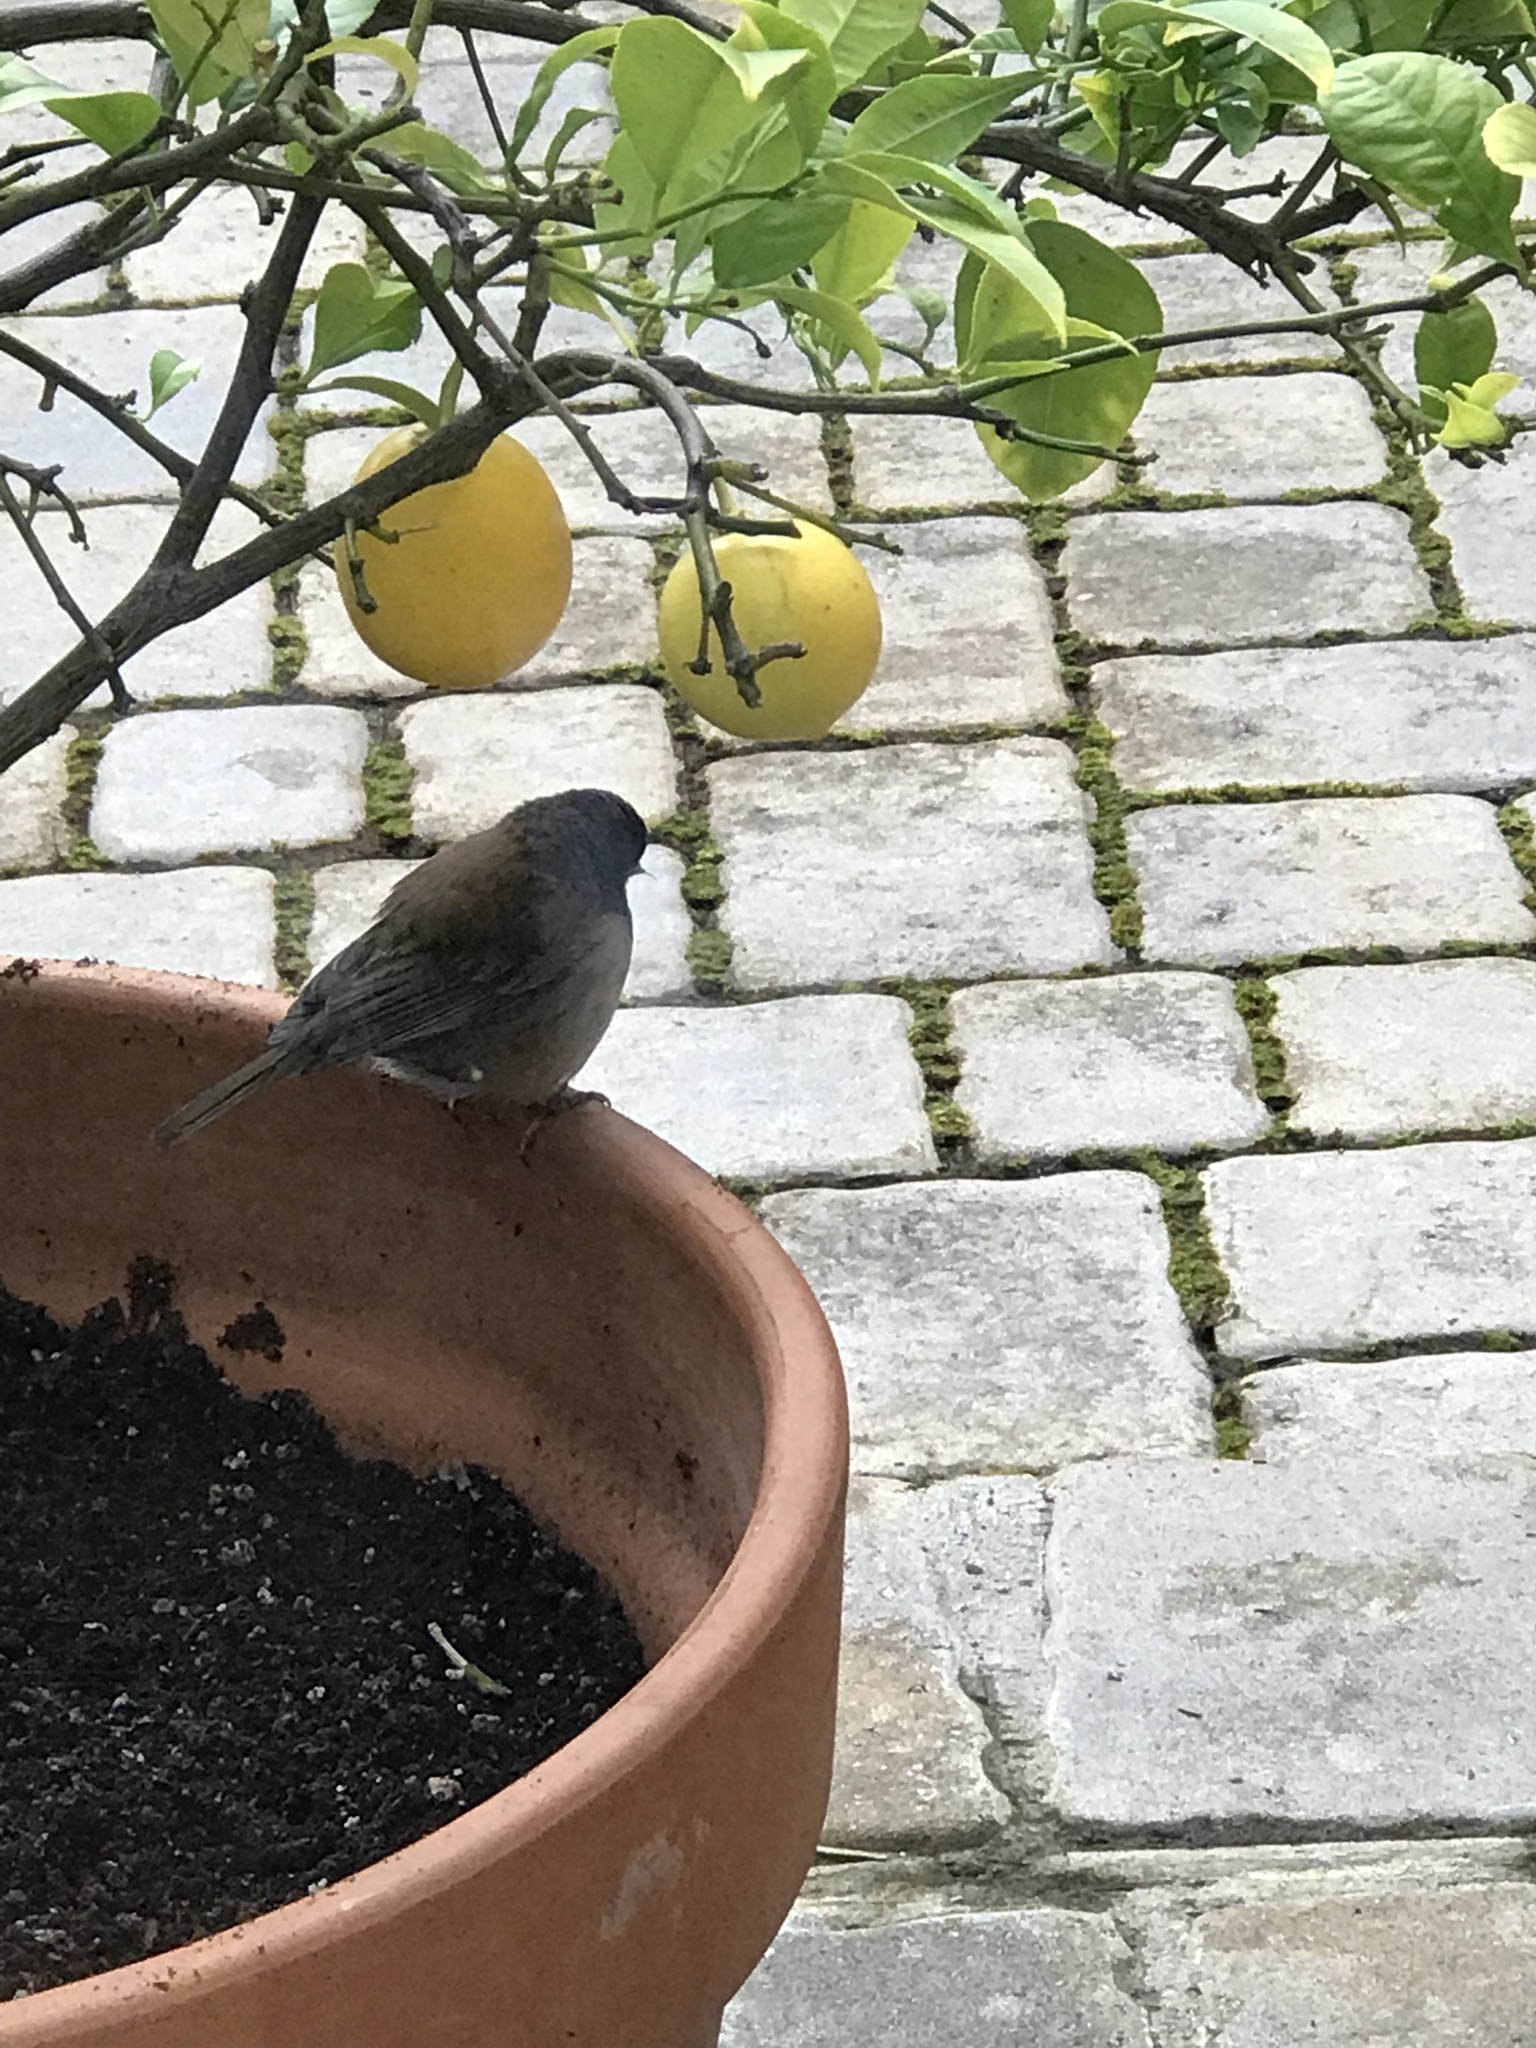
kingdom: Animalia
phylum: Chordata
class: Aves
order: Passeriformes
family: Passerellidae
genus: Junco
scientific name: Junco hyemalis
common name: Dark-eyed junco
